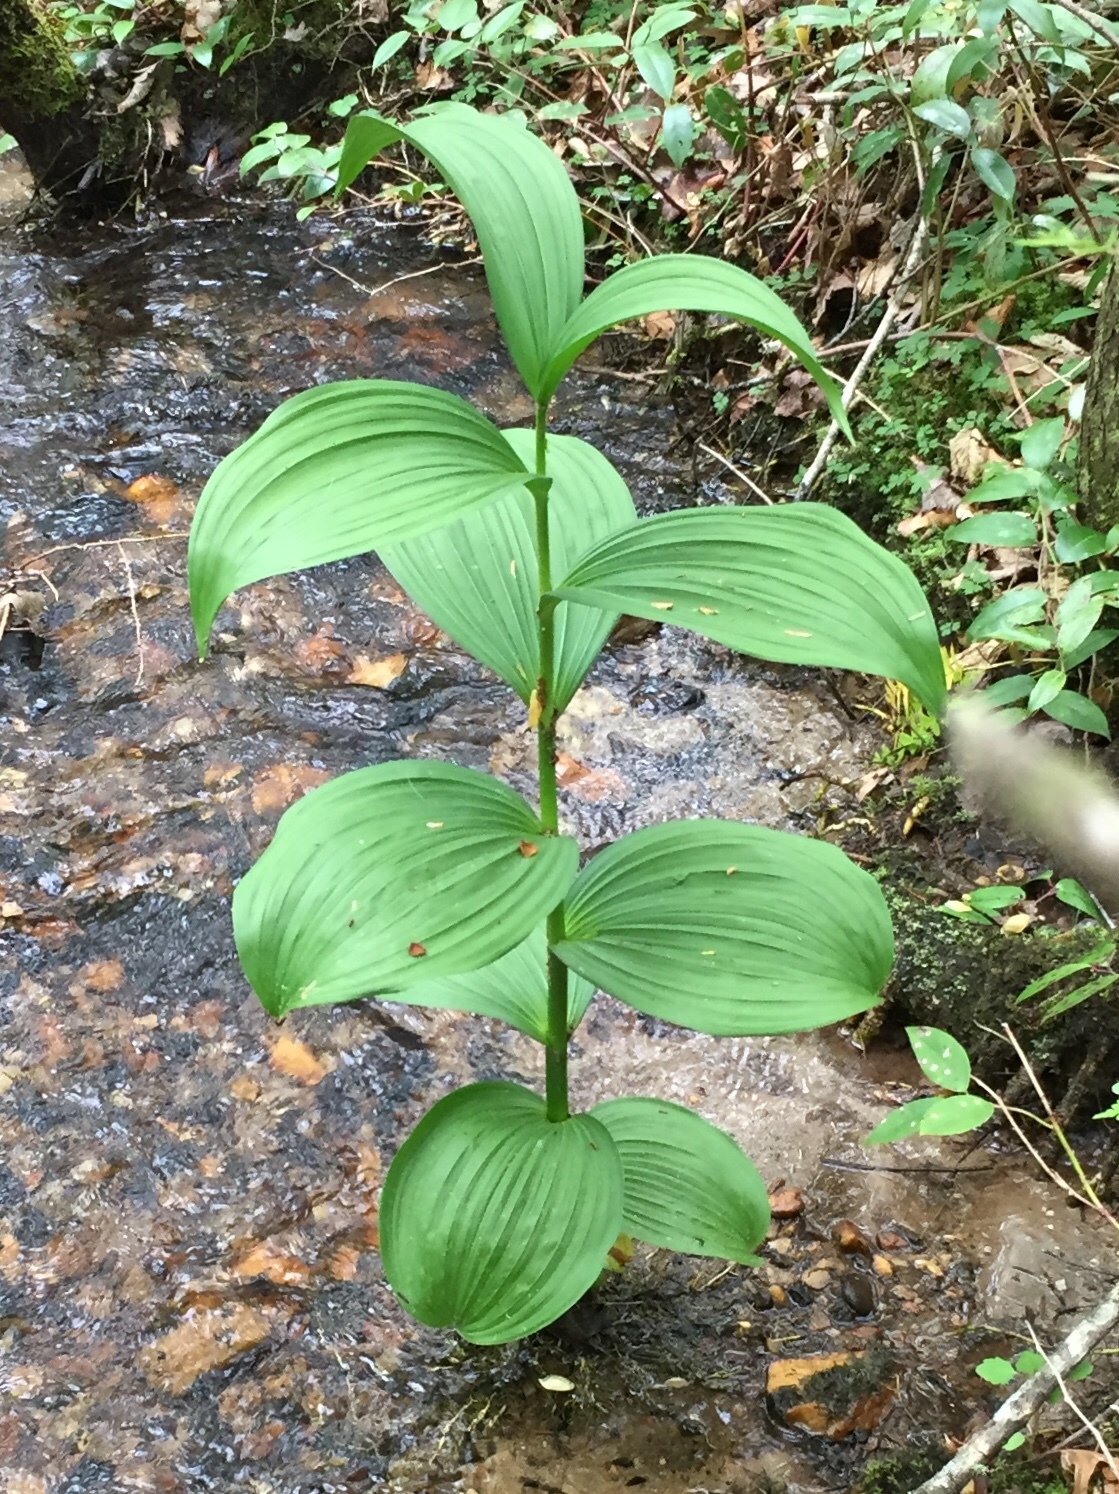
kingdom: Plantae
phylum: Tracheophyta
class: Liliopsida
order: Liliales
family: Melanthiaceae
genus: Veratrum
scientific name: Veratrum viride
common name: American false hellebore
